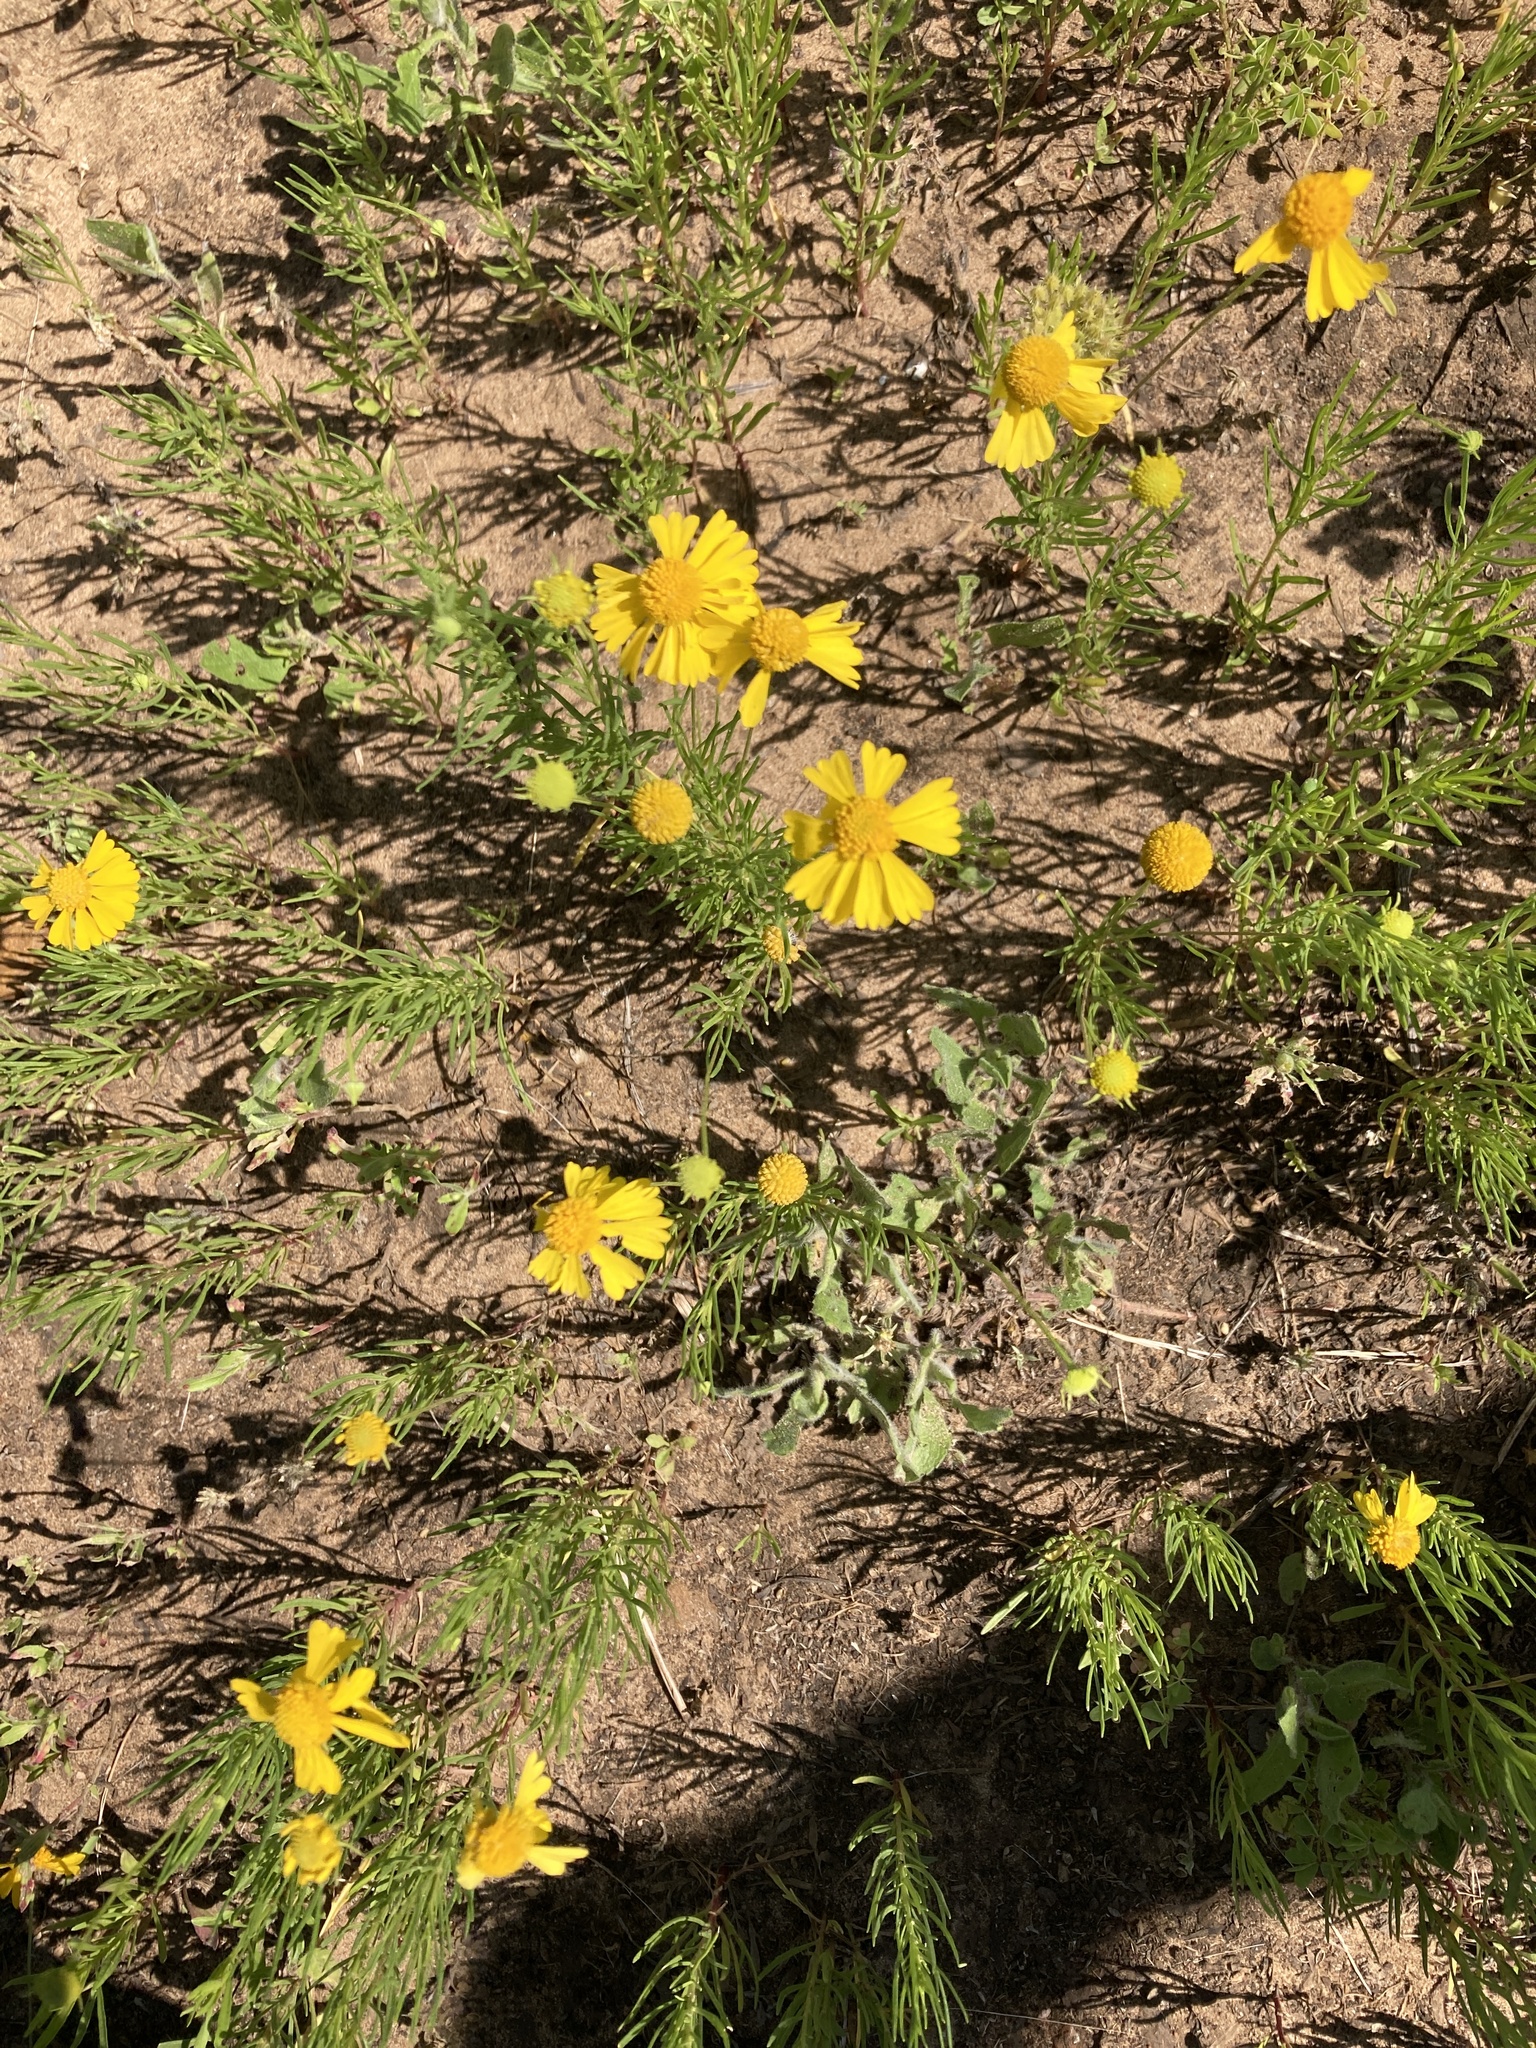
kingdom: Plantae
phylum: Tracheophyta
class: Magnoliopsida
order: Asterales
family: Asteraceae
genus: Helenium
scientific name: Helenium amarum
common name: Bitter sneezeweed
